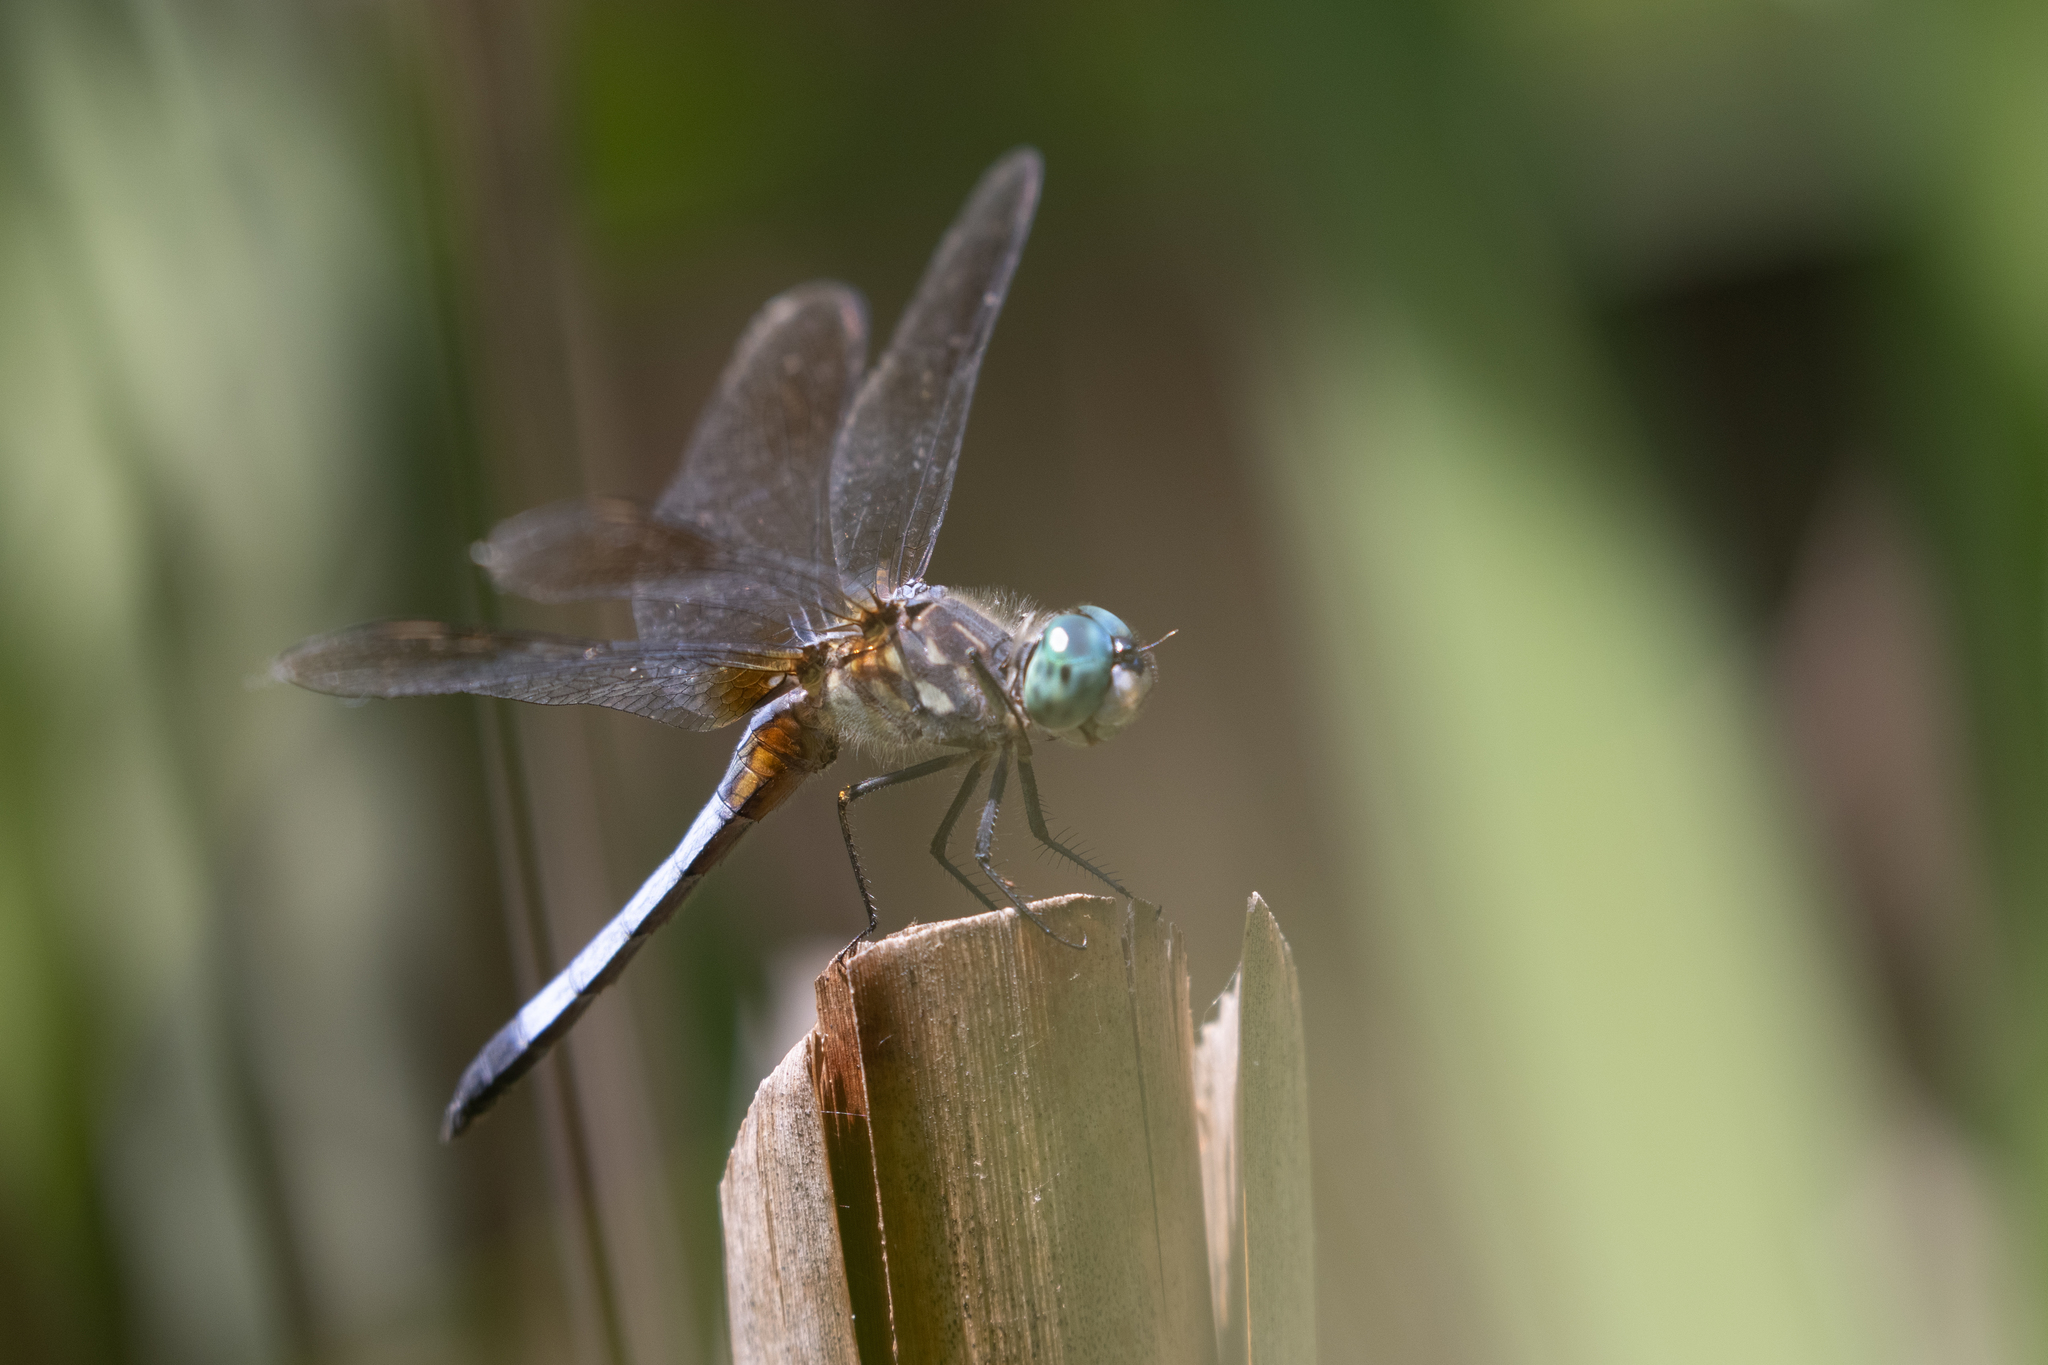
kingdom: Animalia
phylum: Arthropoda
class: Insecta
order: Odonata
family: Libellulidae
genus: Pachydiplax
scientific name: Pachydiplax longipennis
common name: Blue dasher
